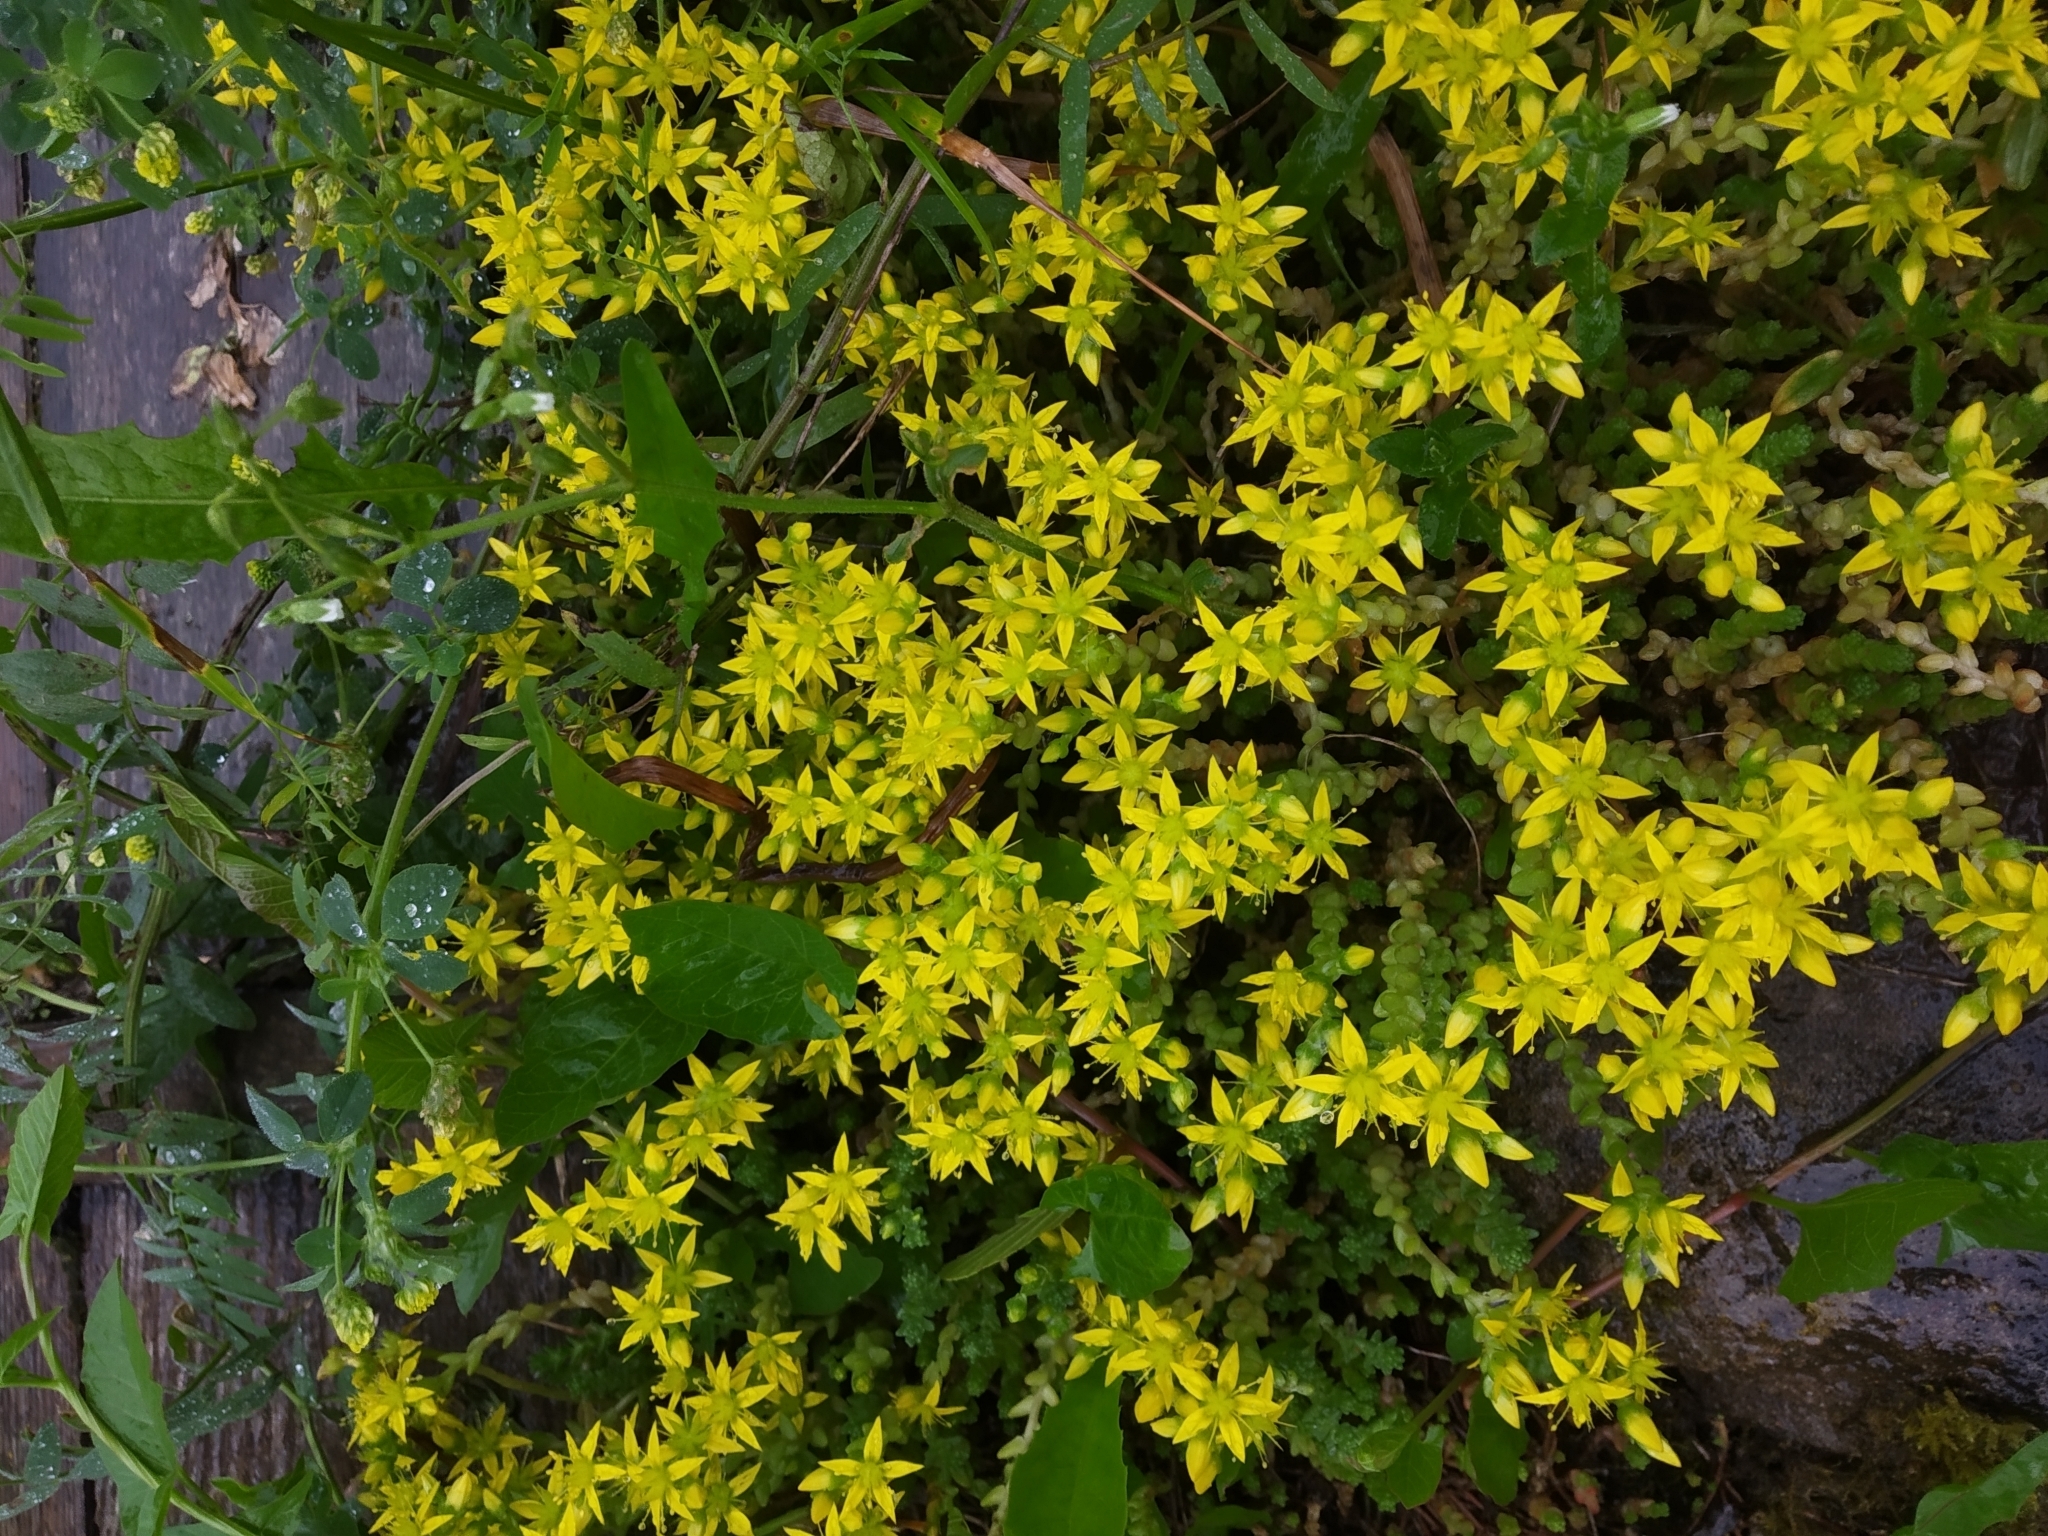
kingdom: Plantae
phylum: Tracheophyta
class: Magnoliopsida
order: Saxifragales
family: Crassulaceae
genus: Sedum
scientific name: Sedum acre
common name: Biting stonecrop
